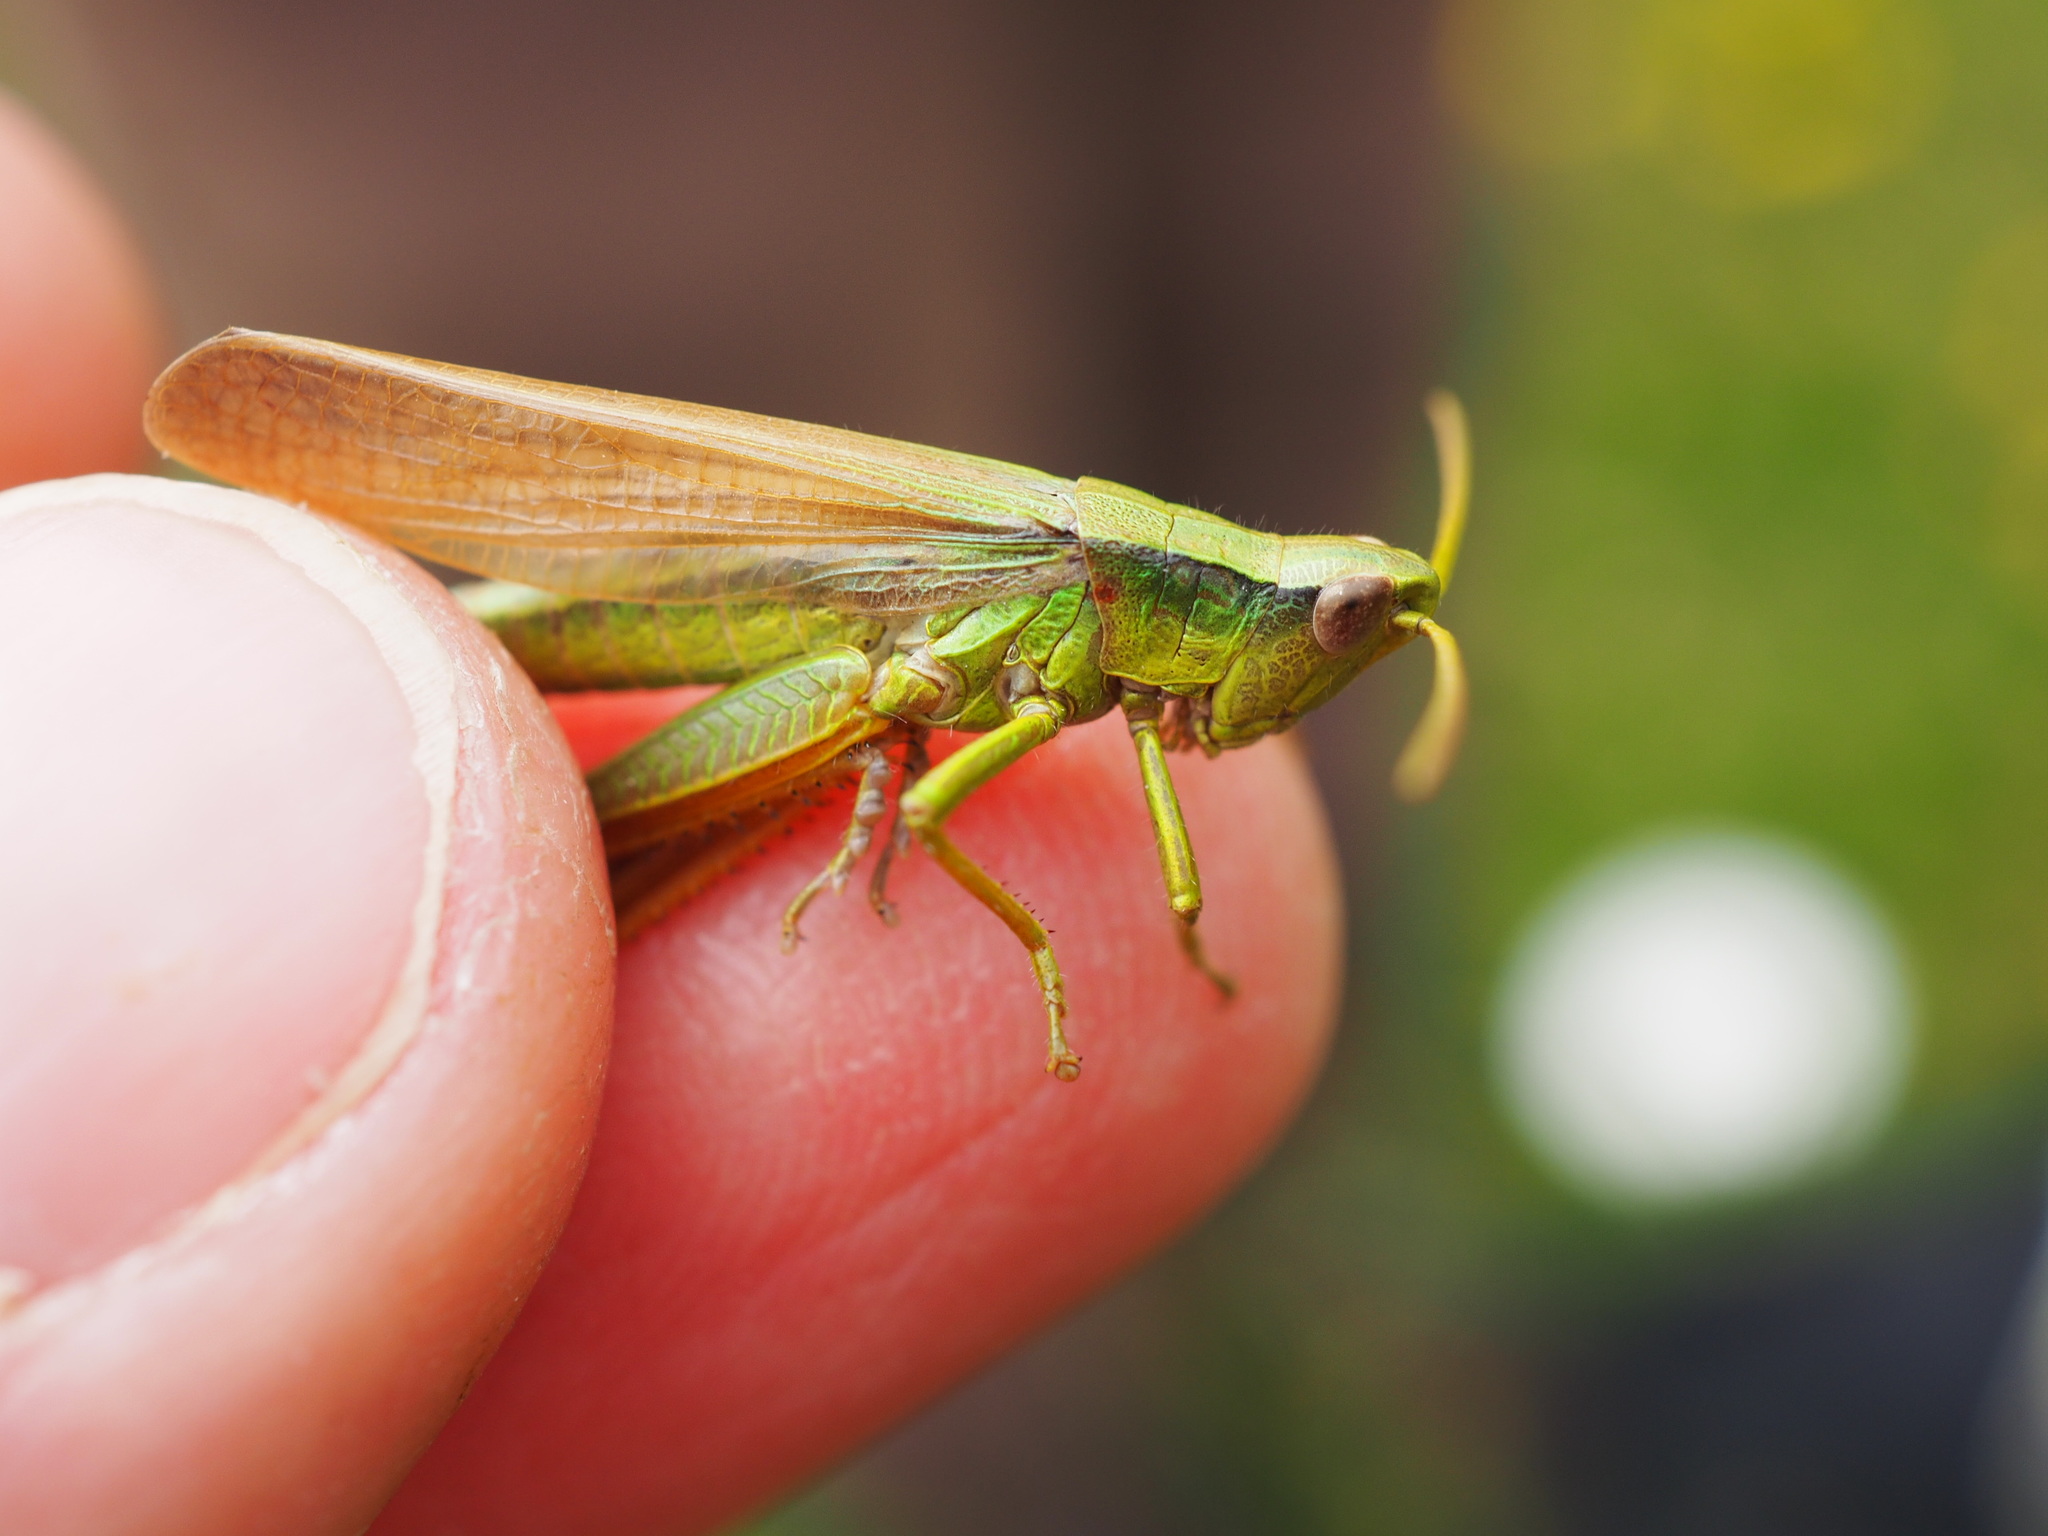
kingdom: Animalia
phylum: Arthropoda
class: Insecta
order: Orthoptera
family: Acrididae
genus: Chrysochraon
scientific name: Chrysochraon dispar
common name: Large gold grasshopper
